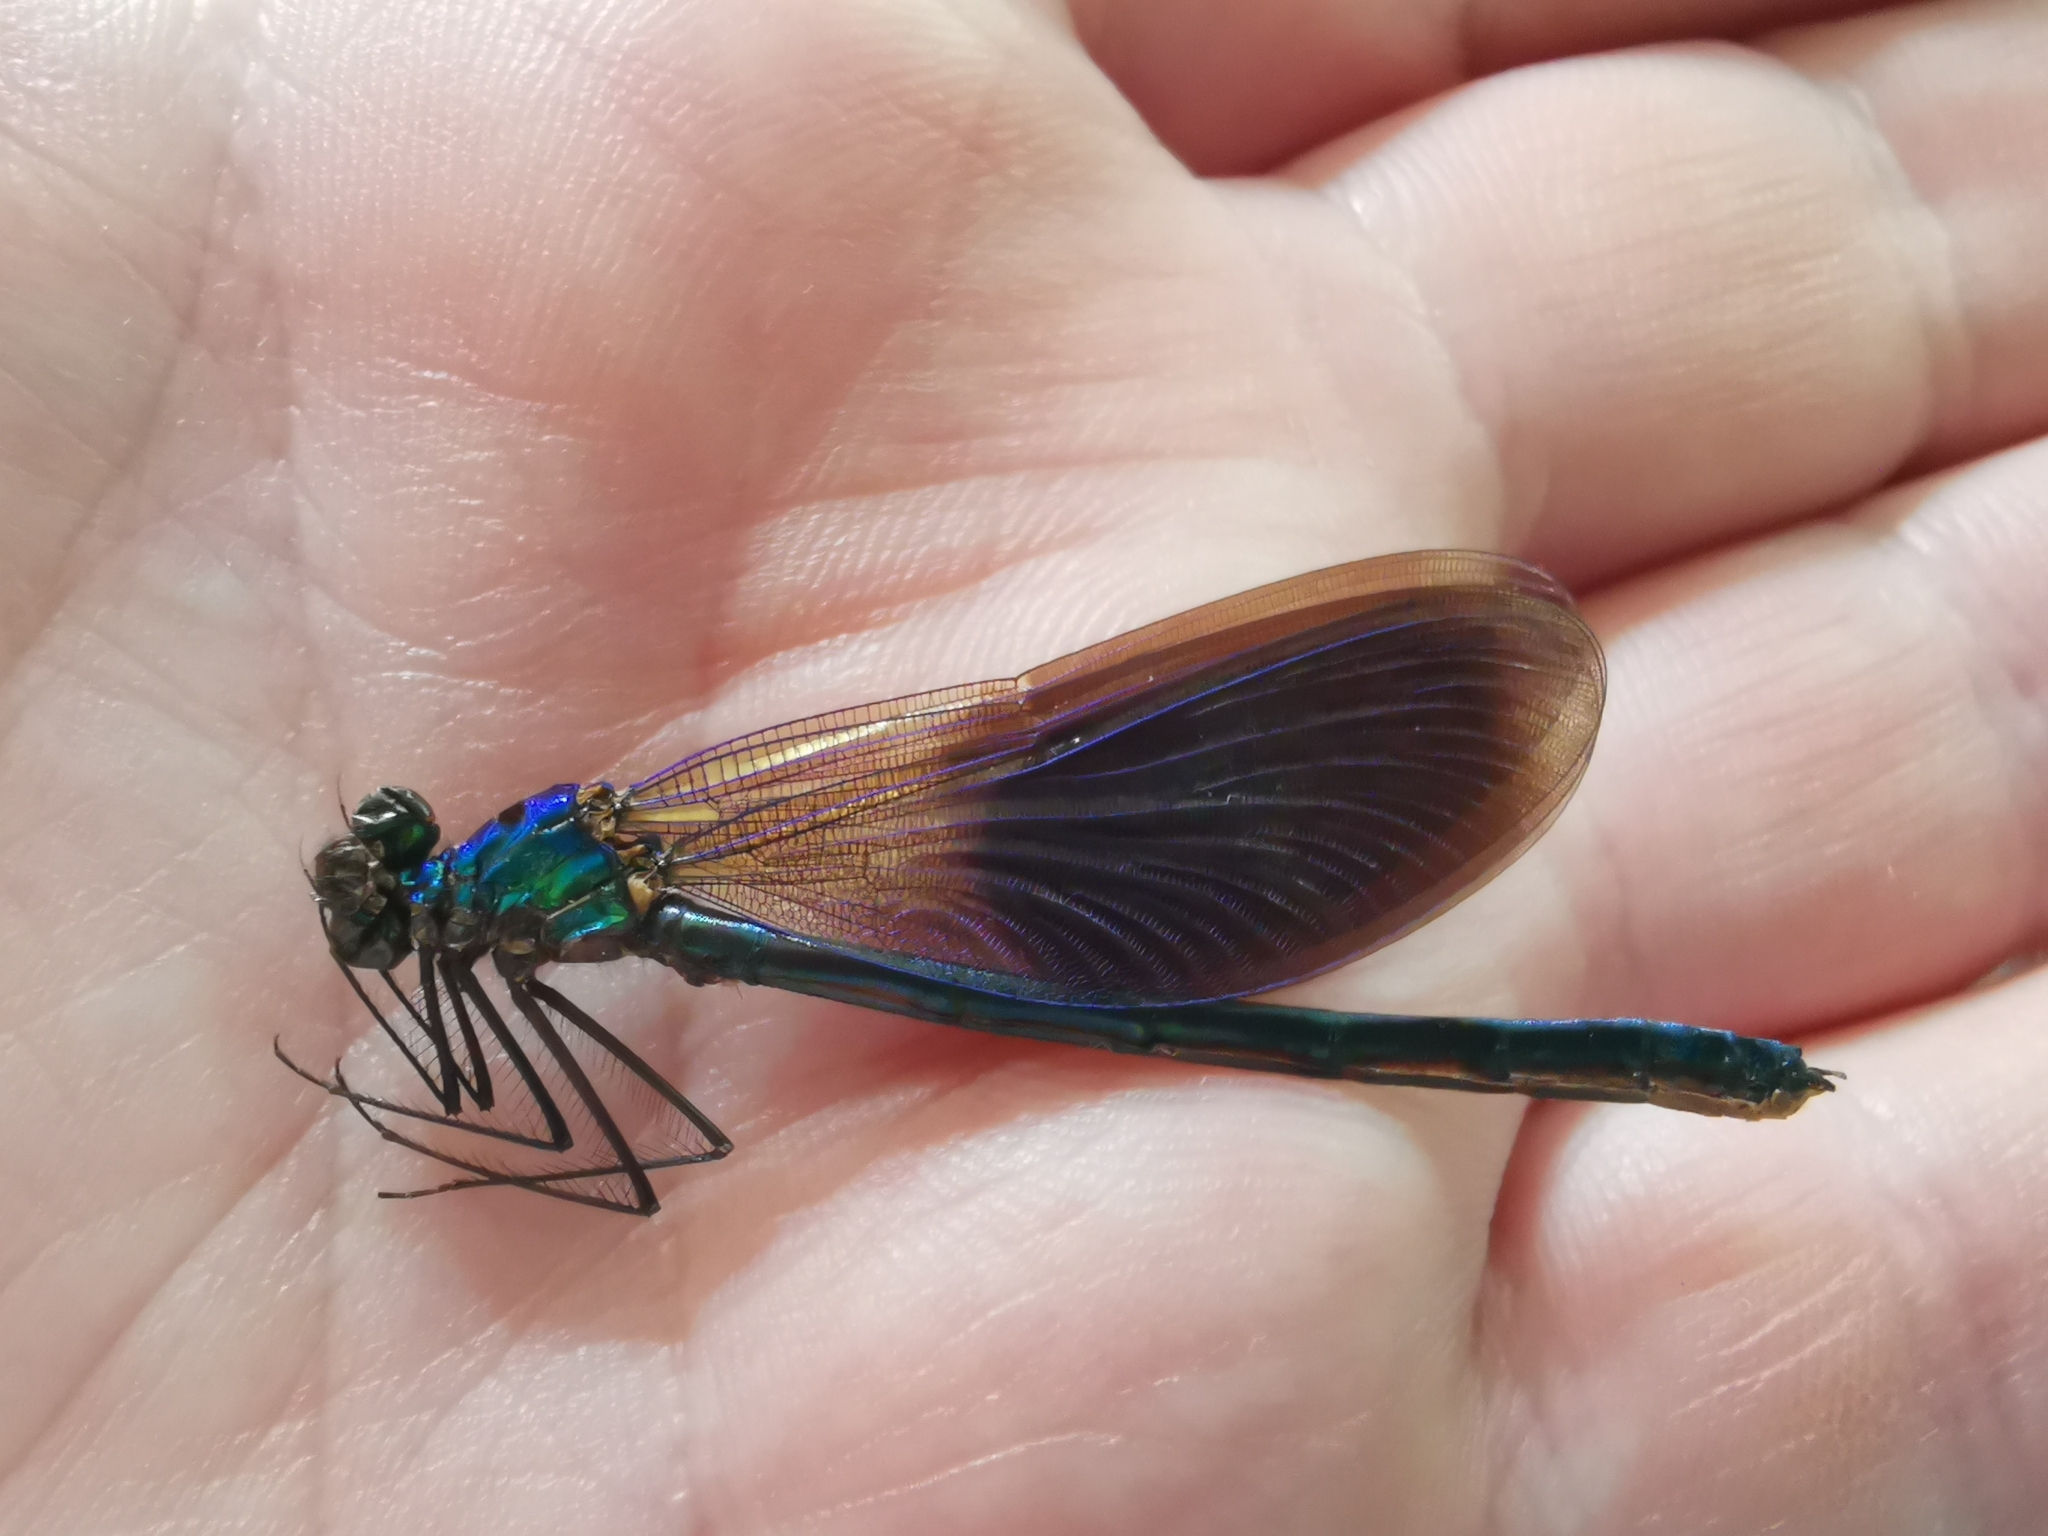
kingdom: Animalia
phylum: Arthropoda
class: Insecta
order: Odonata
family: Calopterygidae
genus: Calopteryx
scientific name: Calopteryx splendens
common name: Banded demoiselle
